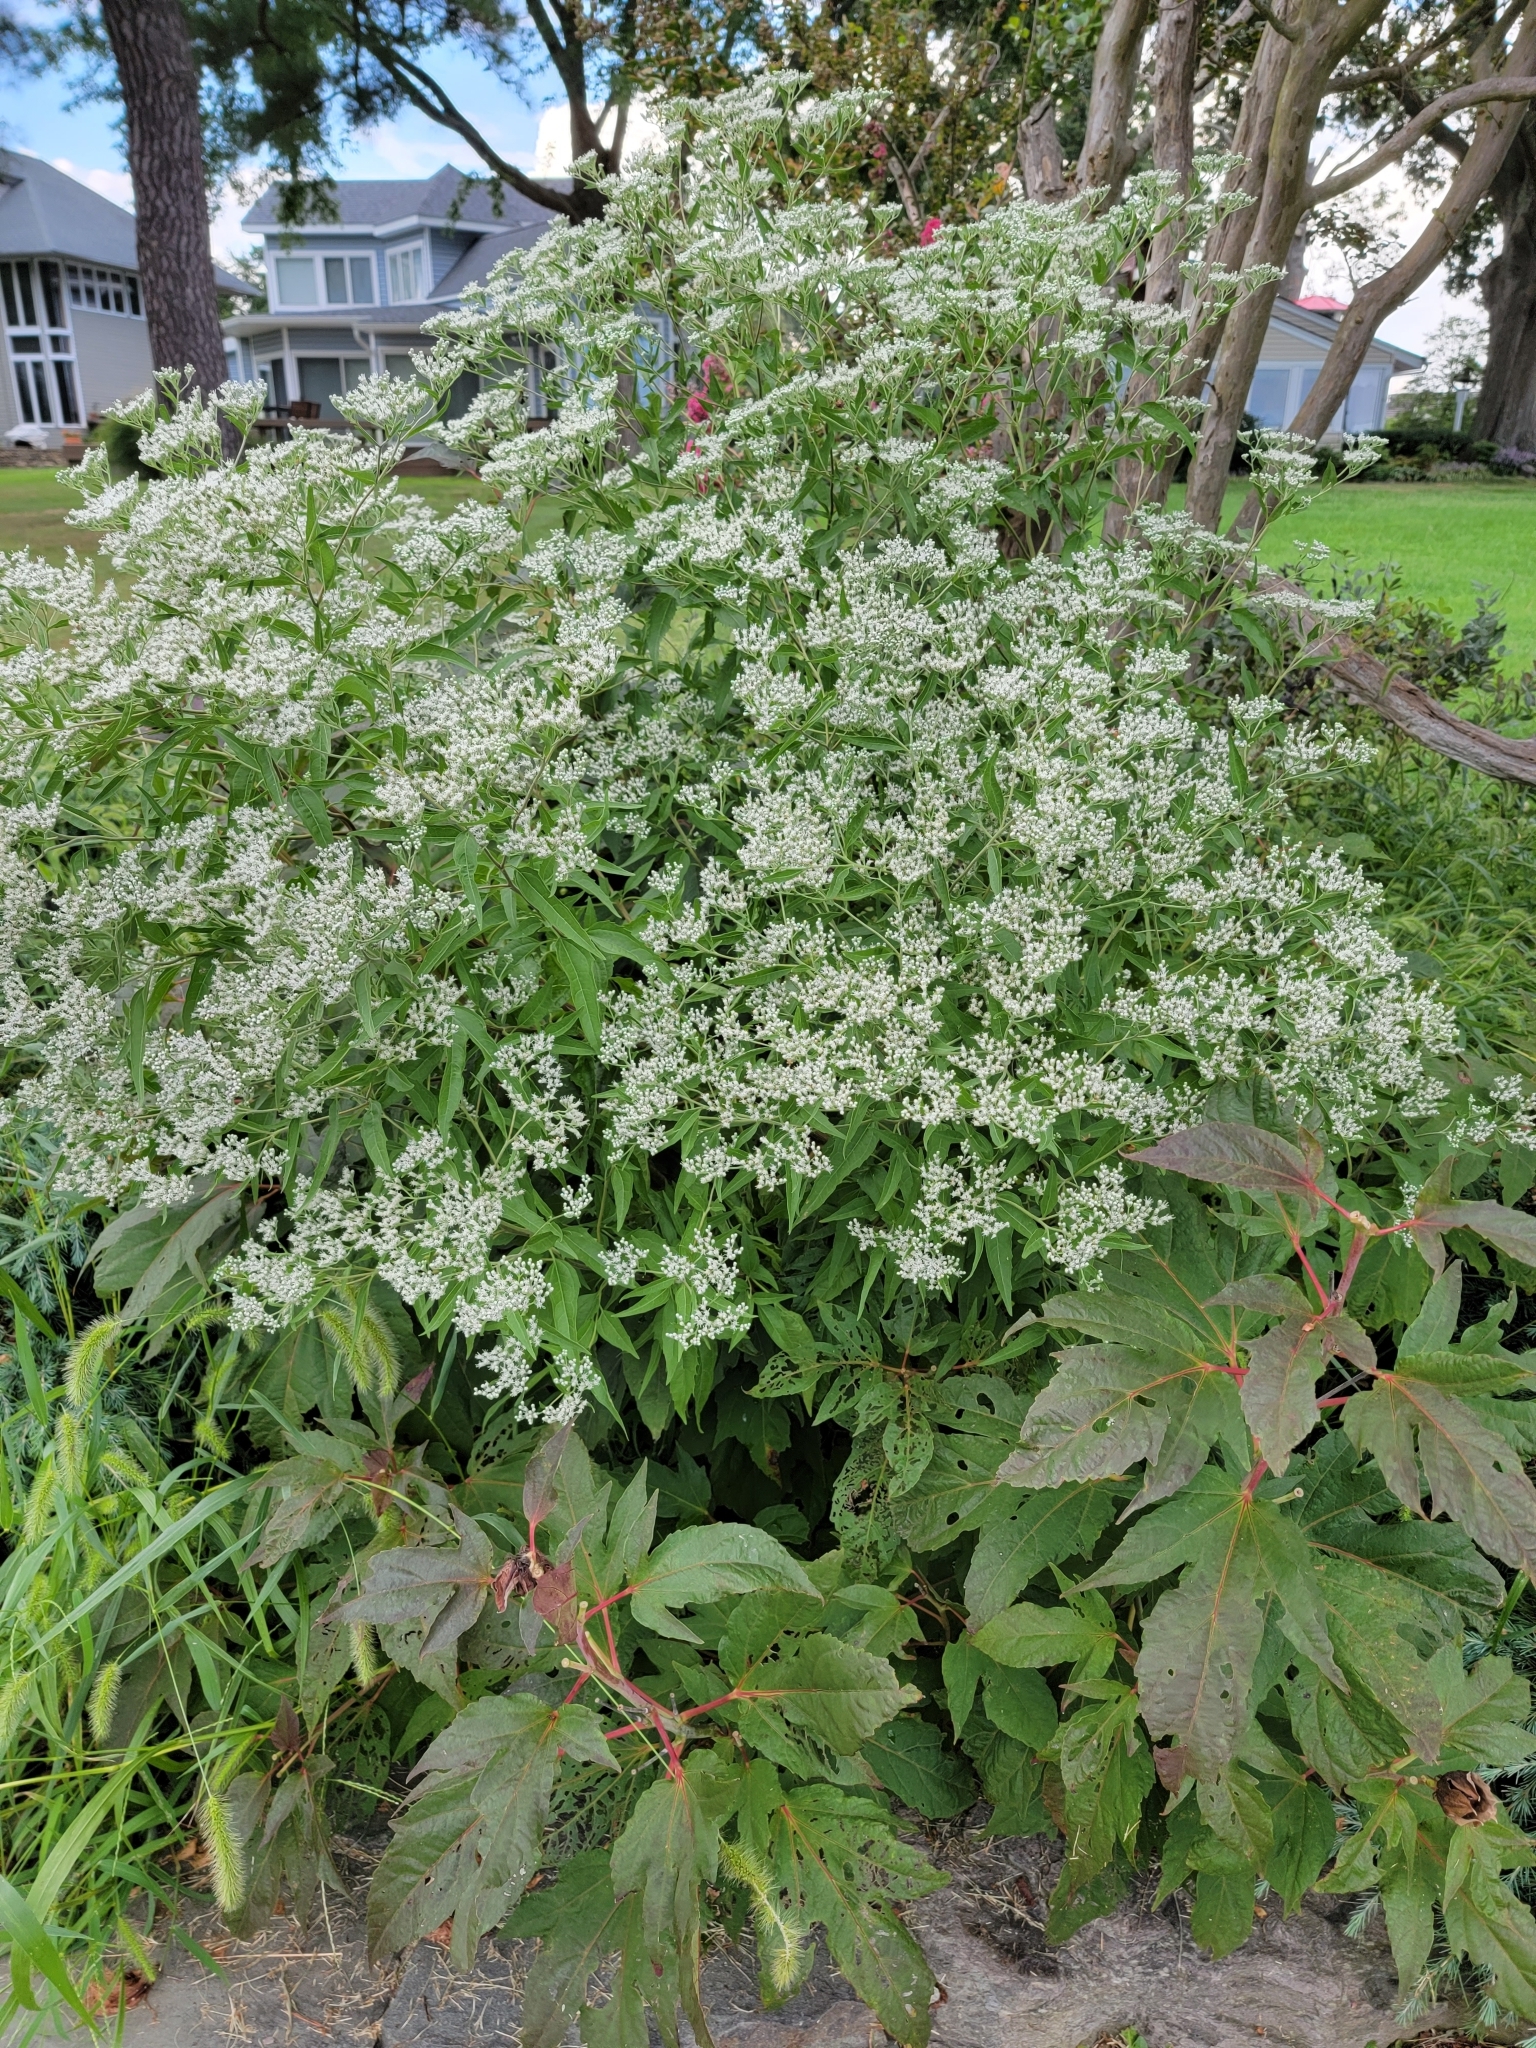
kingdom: Plantae
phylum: Tracheophyta
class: Magnoliopsida
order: Asterales
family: Asteraceae
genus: Eupatorium
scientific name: Eupatorium serotinum
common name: Late boneset
